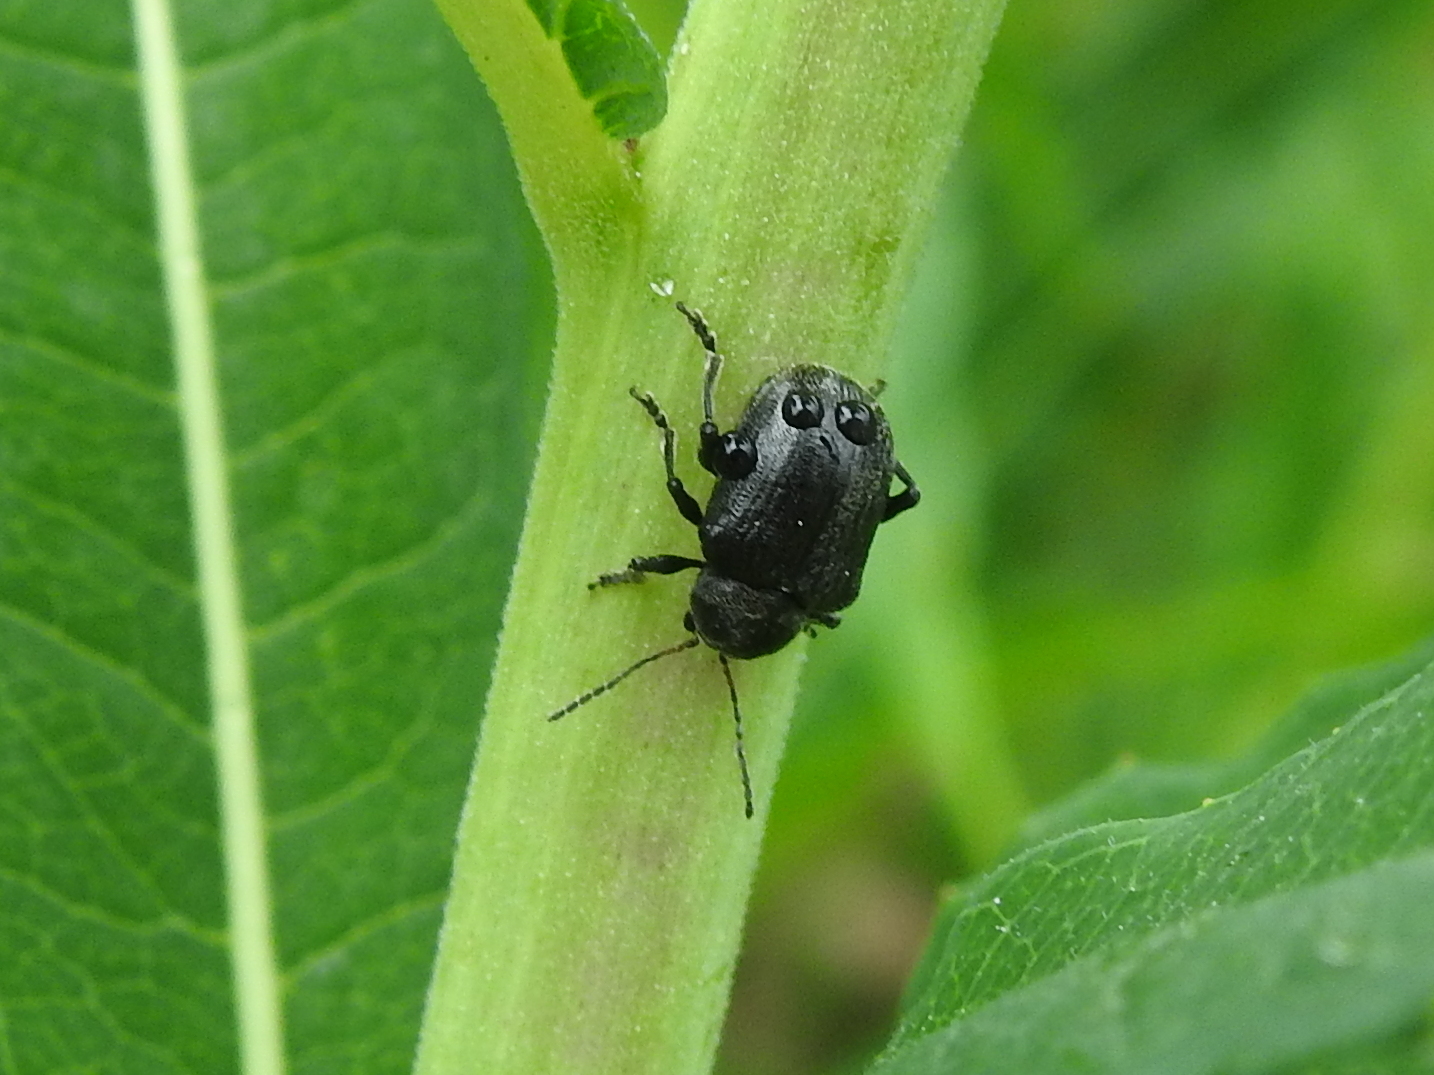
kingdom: Animalia
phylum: Arthropoda
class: Insecta
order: Coleoptera
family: Chrysomelidae
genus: Bromius
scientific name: Bromius obscurus
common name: Western grape rootworm
